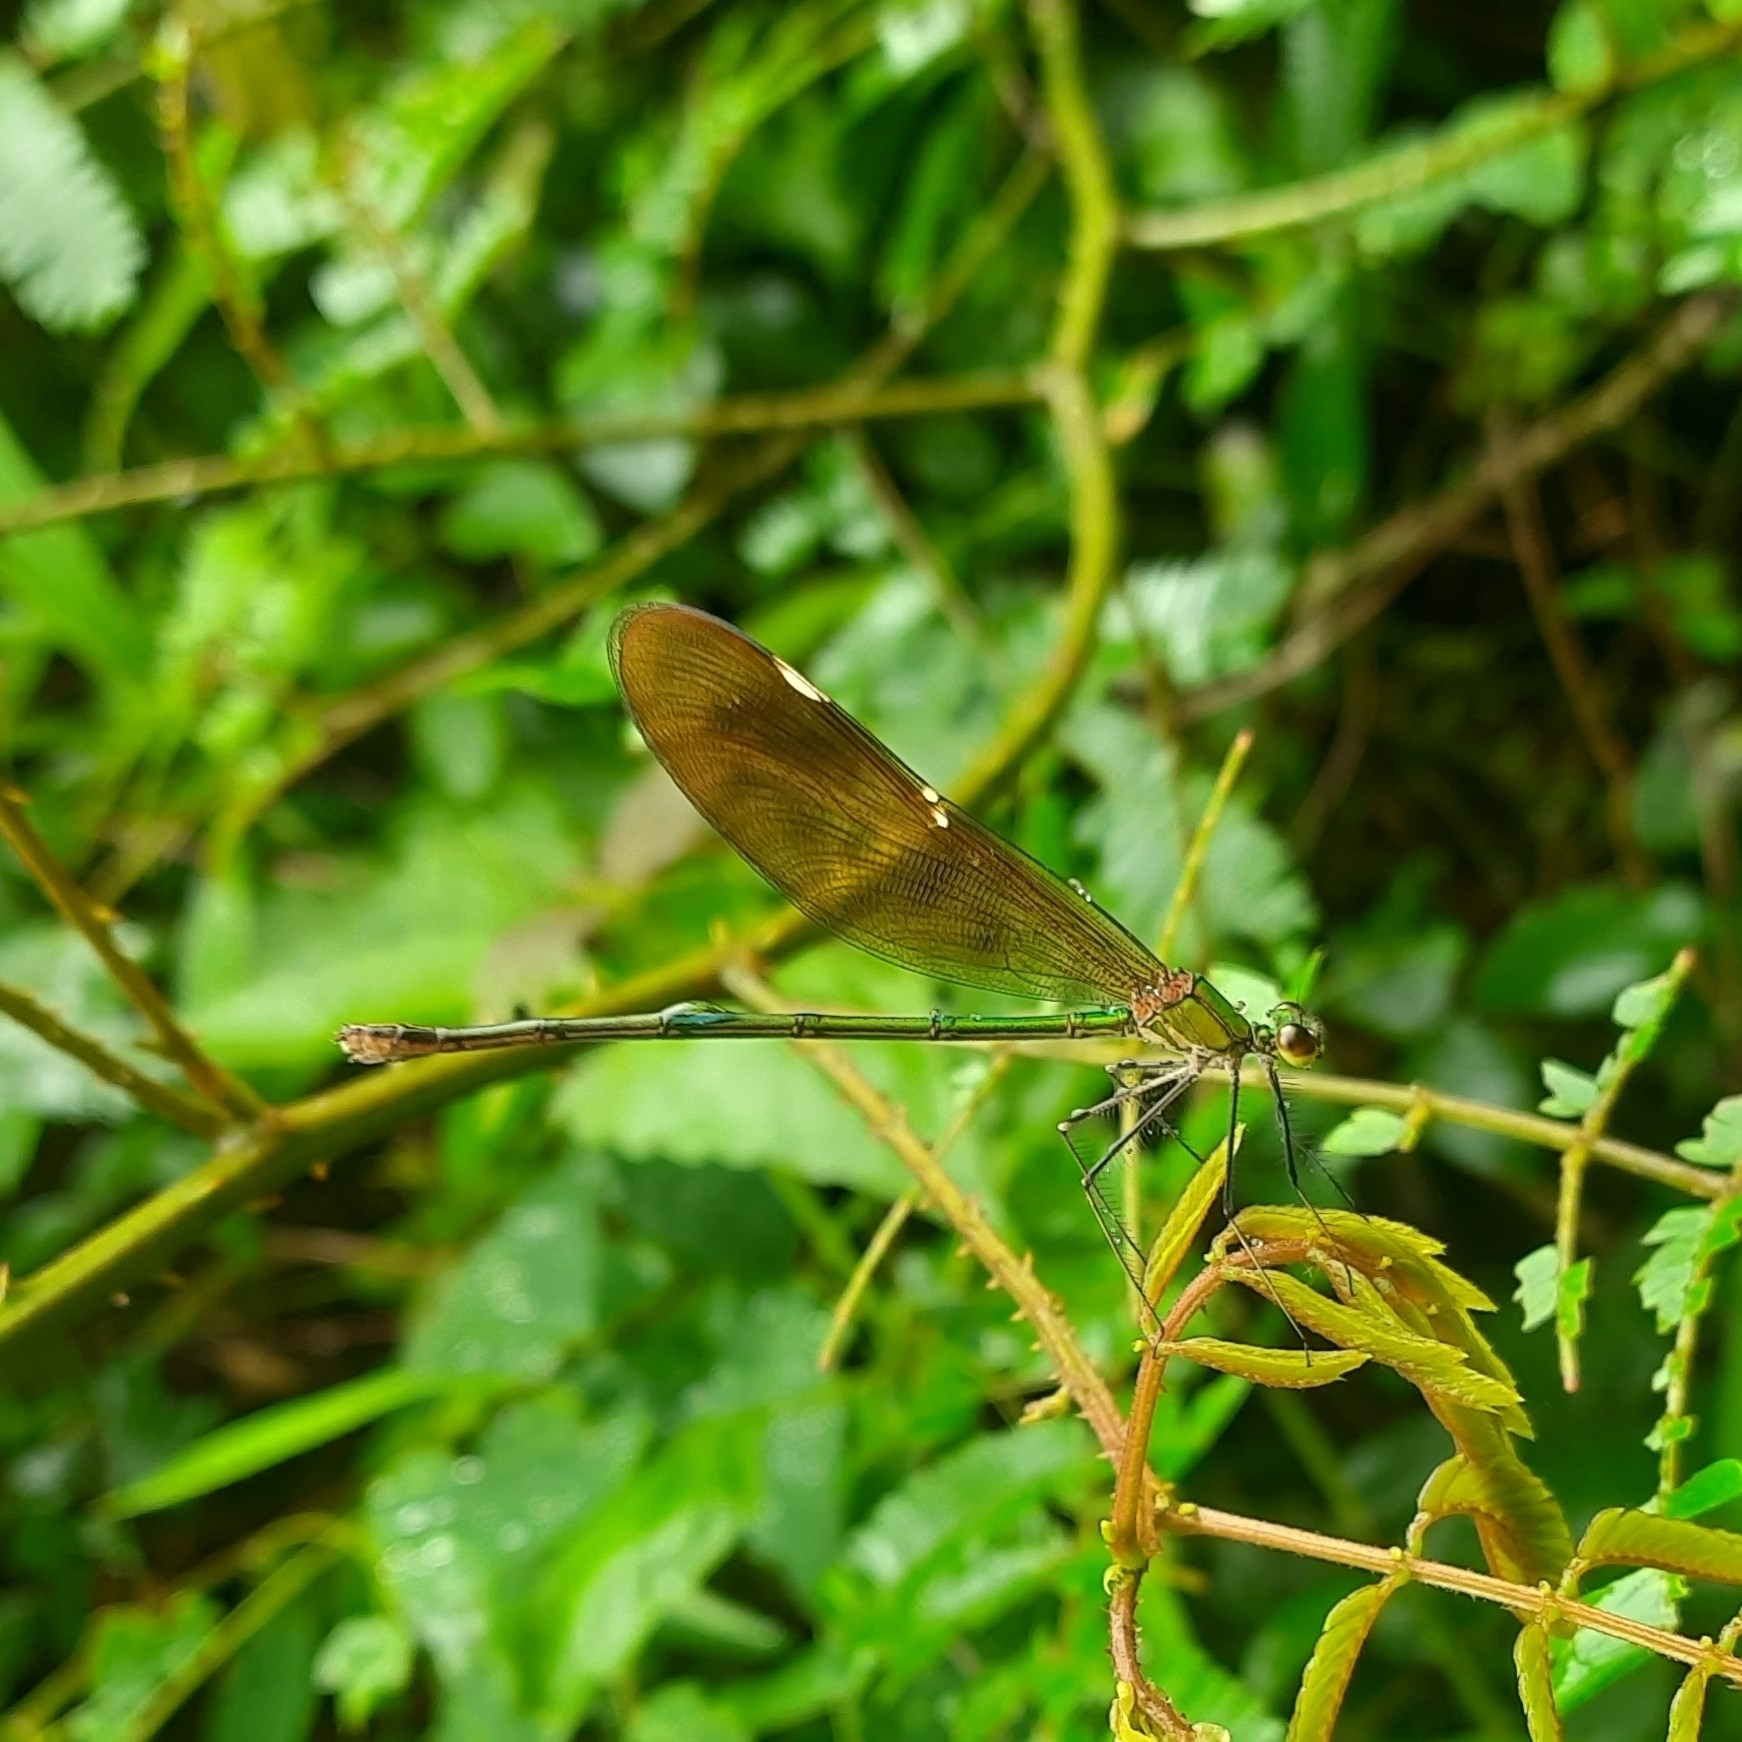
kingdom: Animalia
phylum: Arthropoda
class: Insecta
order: Odonata
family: Calopterygidae
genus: Neurobasis
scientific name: Neurobasis chinensis
